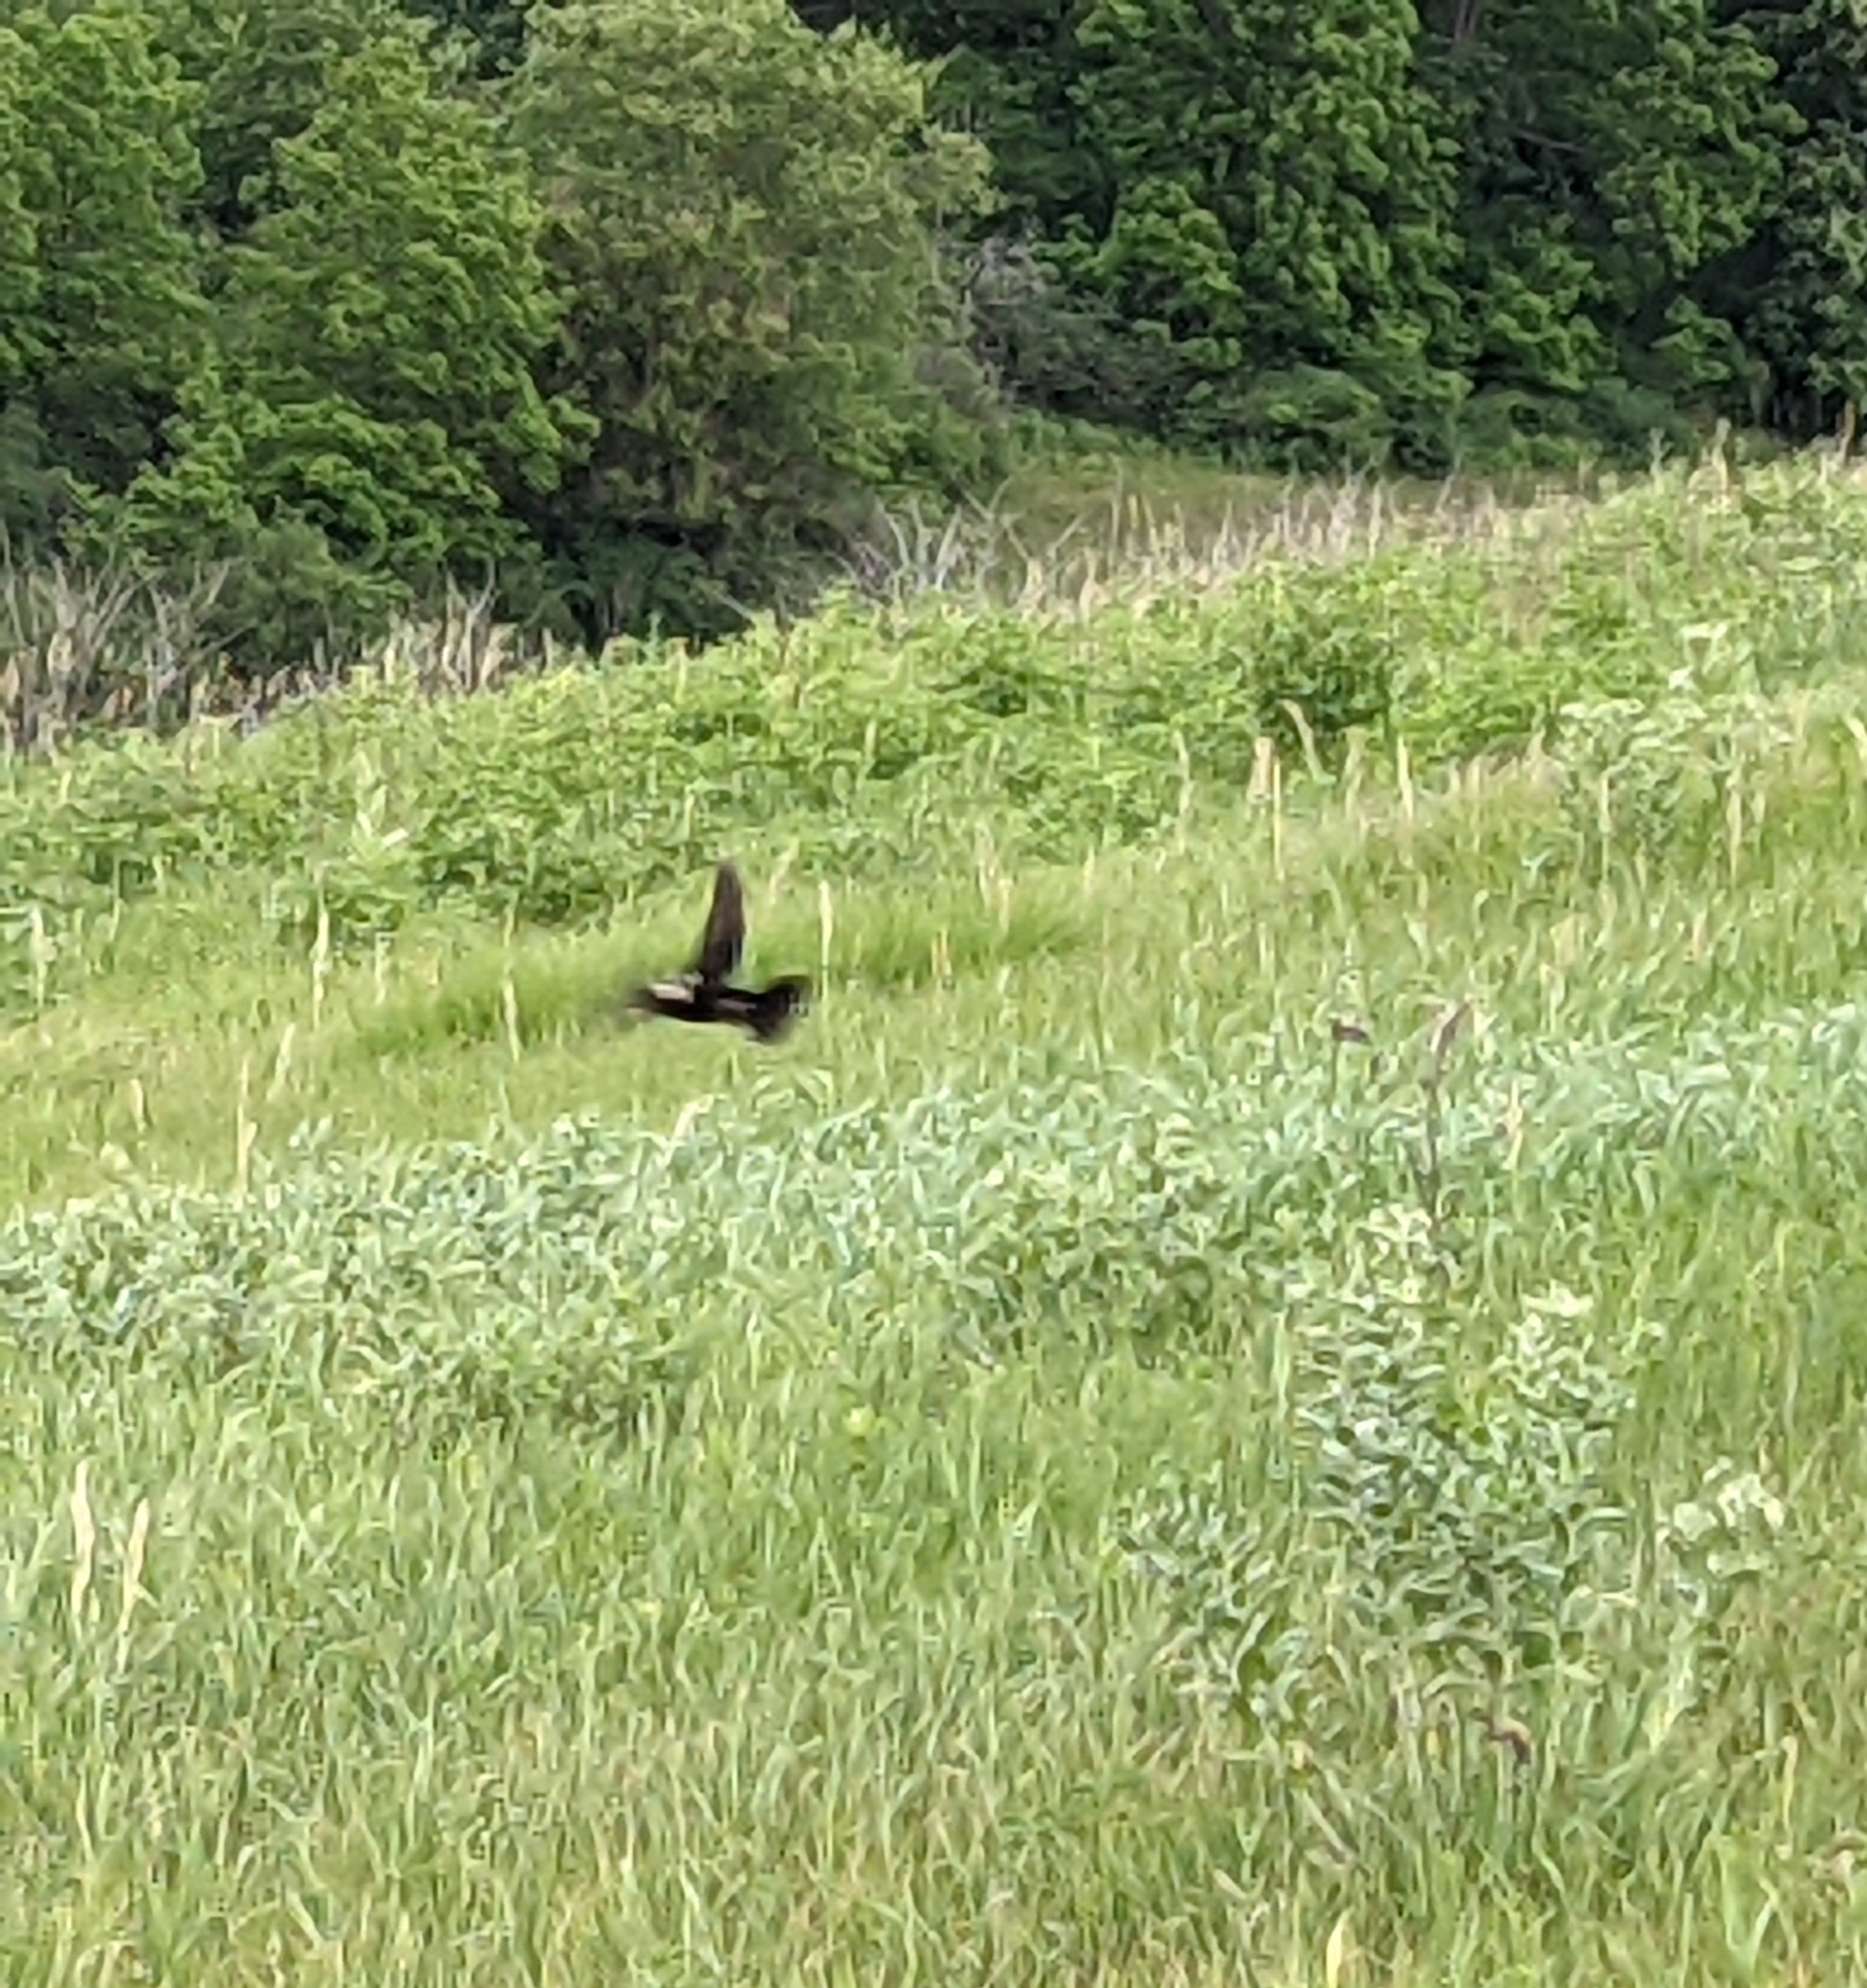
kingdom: Animalia
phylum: Chordata
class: Aves
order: Passeriformes
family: Icteridae
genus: Dolichonyx
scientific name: Dolichonyx oryzivorus
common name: Bobolink
